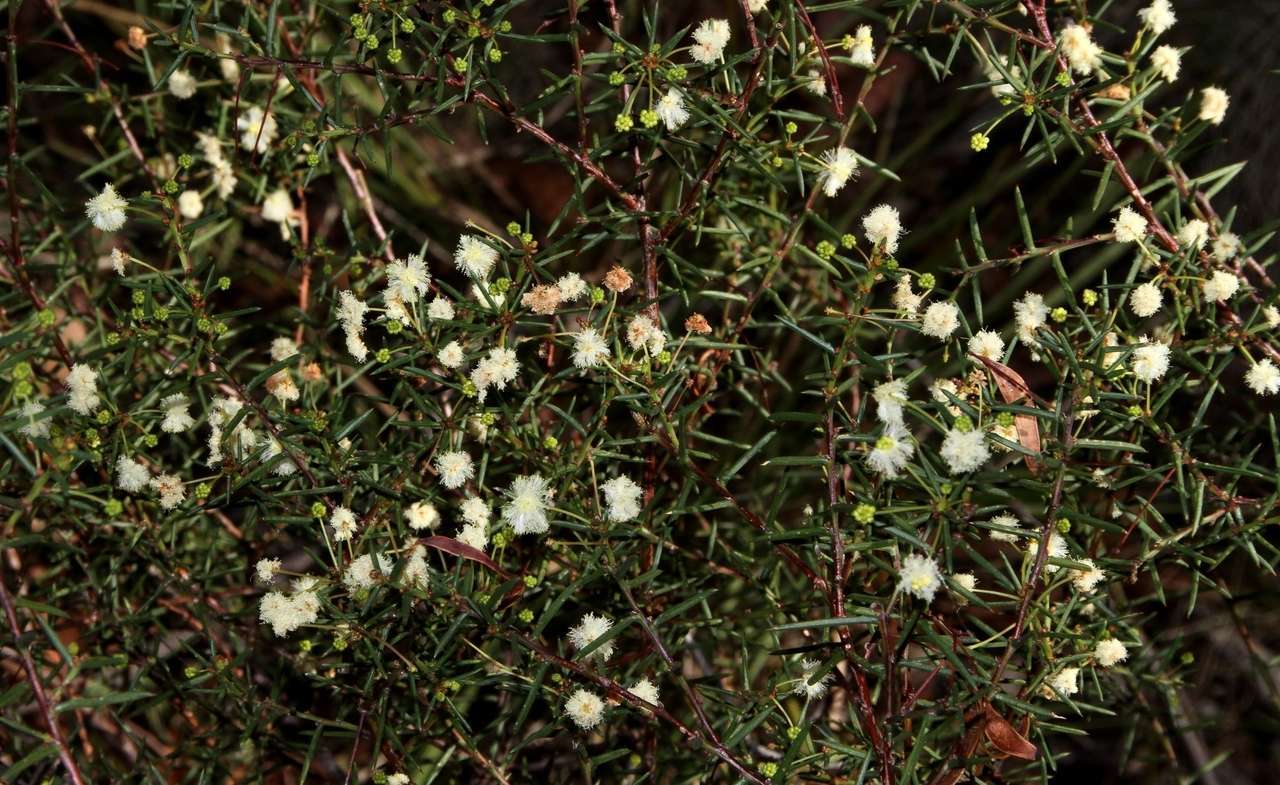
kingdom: Plantae
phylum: Tracheophyta
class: Magnoliopsida
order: Fabales
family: Fabaceae
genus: Acacia
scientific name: Acacia genistifolia
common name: Early wattle
